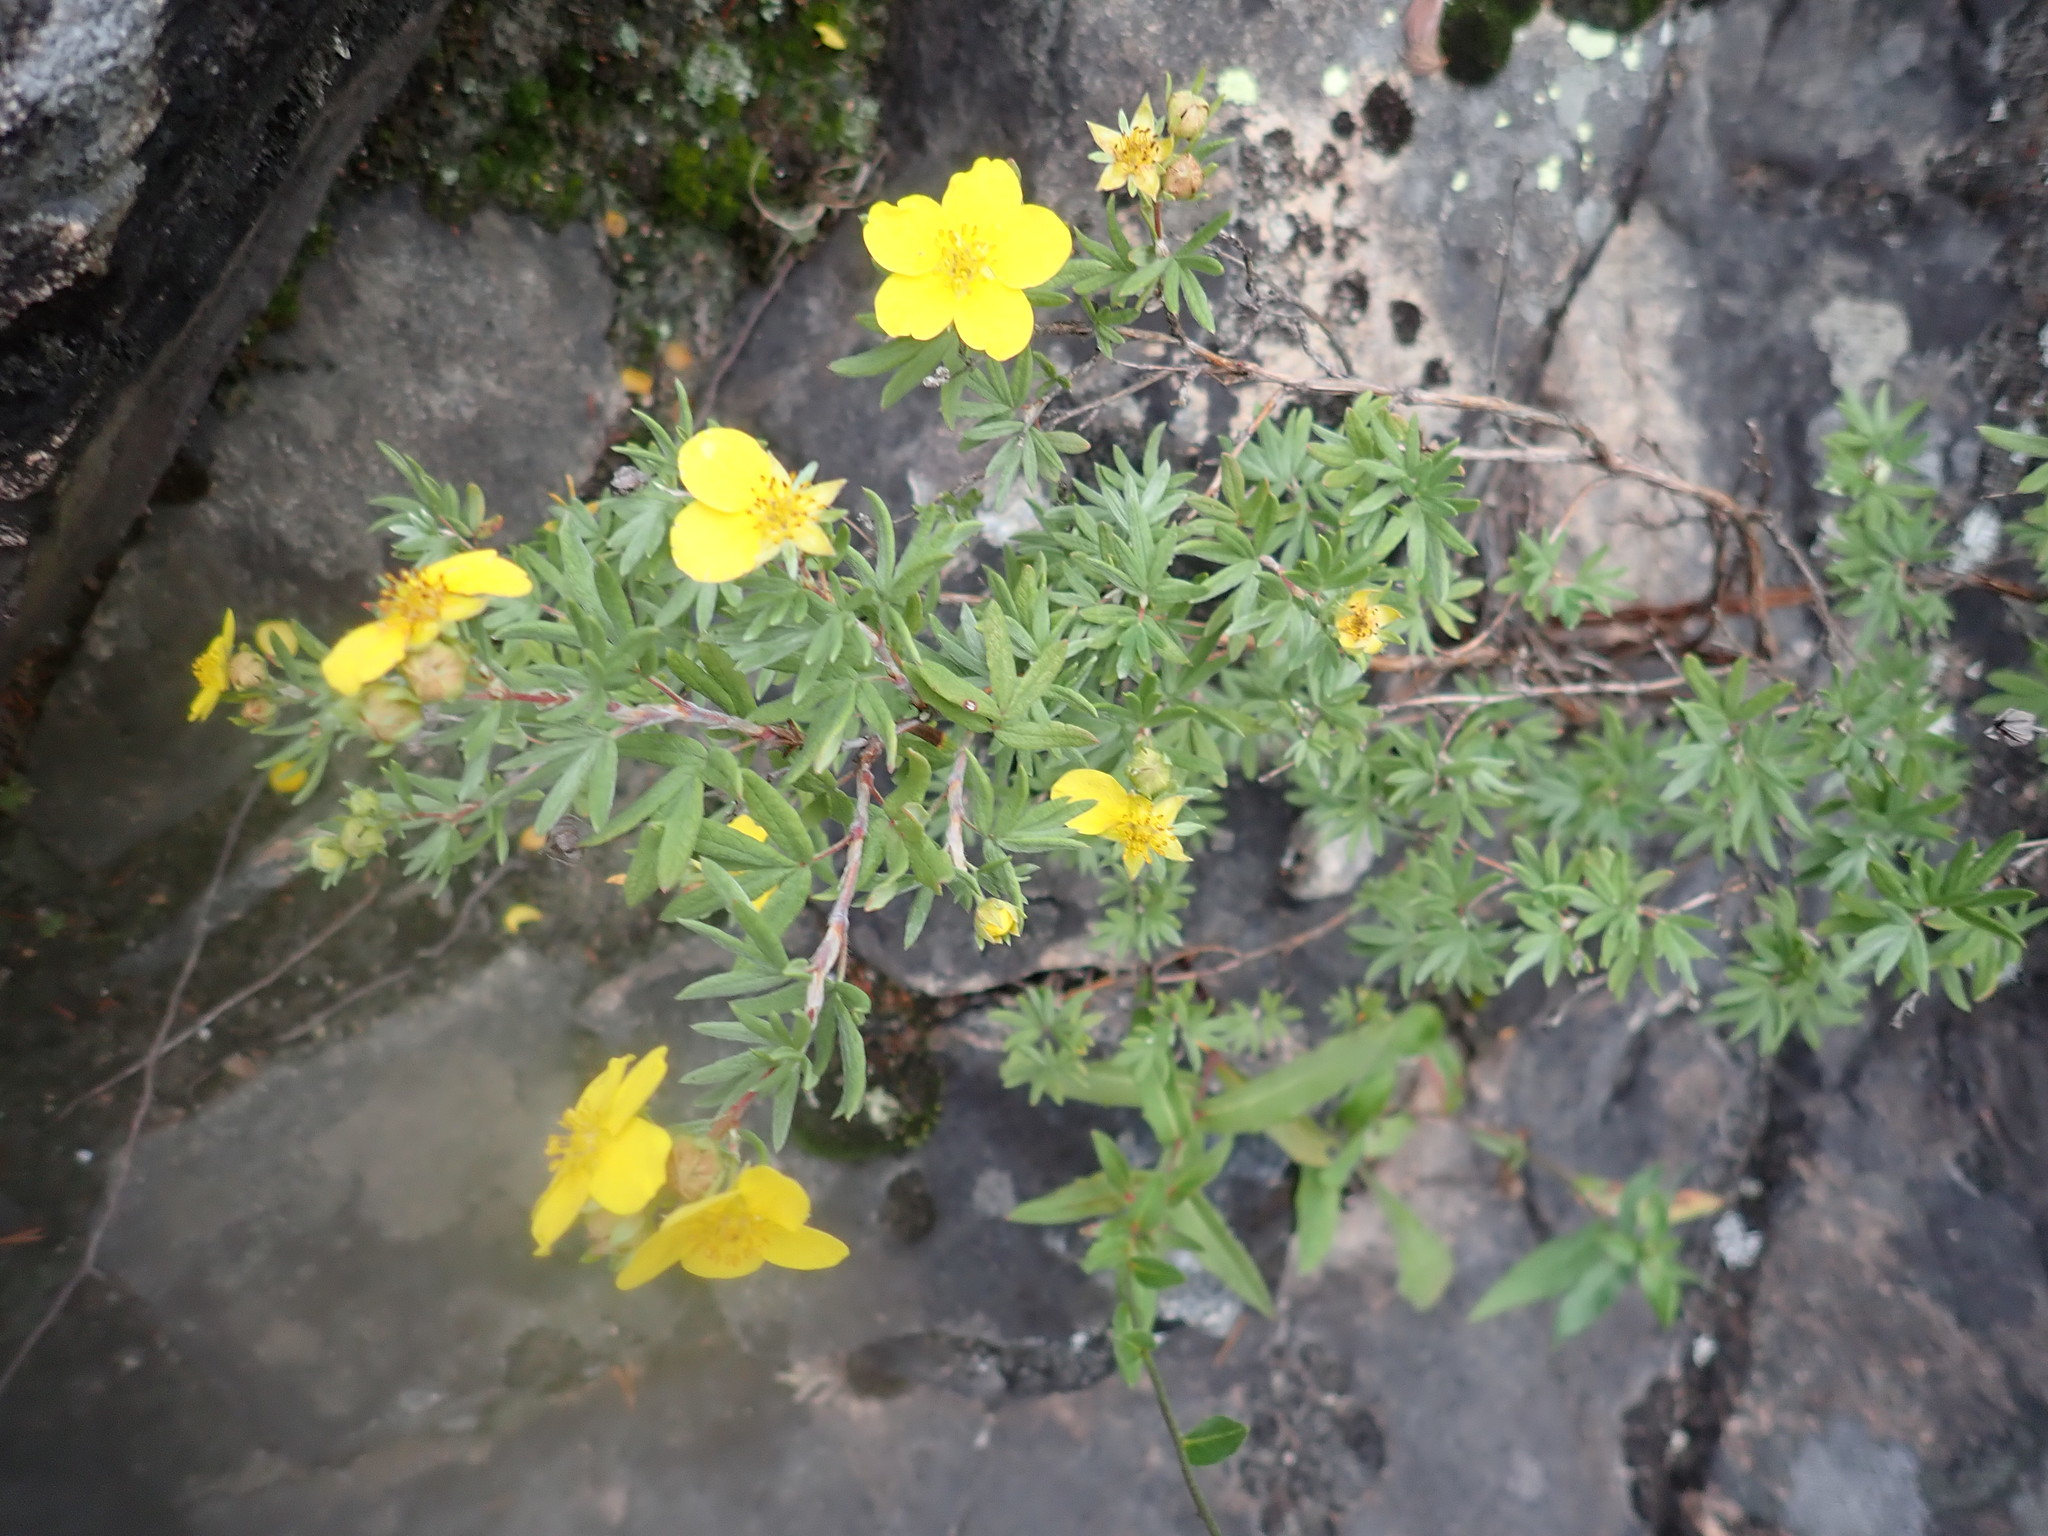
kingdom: Plantae
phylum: Tracheophyta
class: Magnoliopsida
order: Rosales
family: Rosaceae
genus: Dasiphora
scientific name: Dasiphora fruticosa
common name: Shrubby cinquefoil
